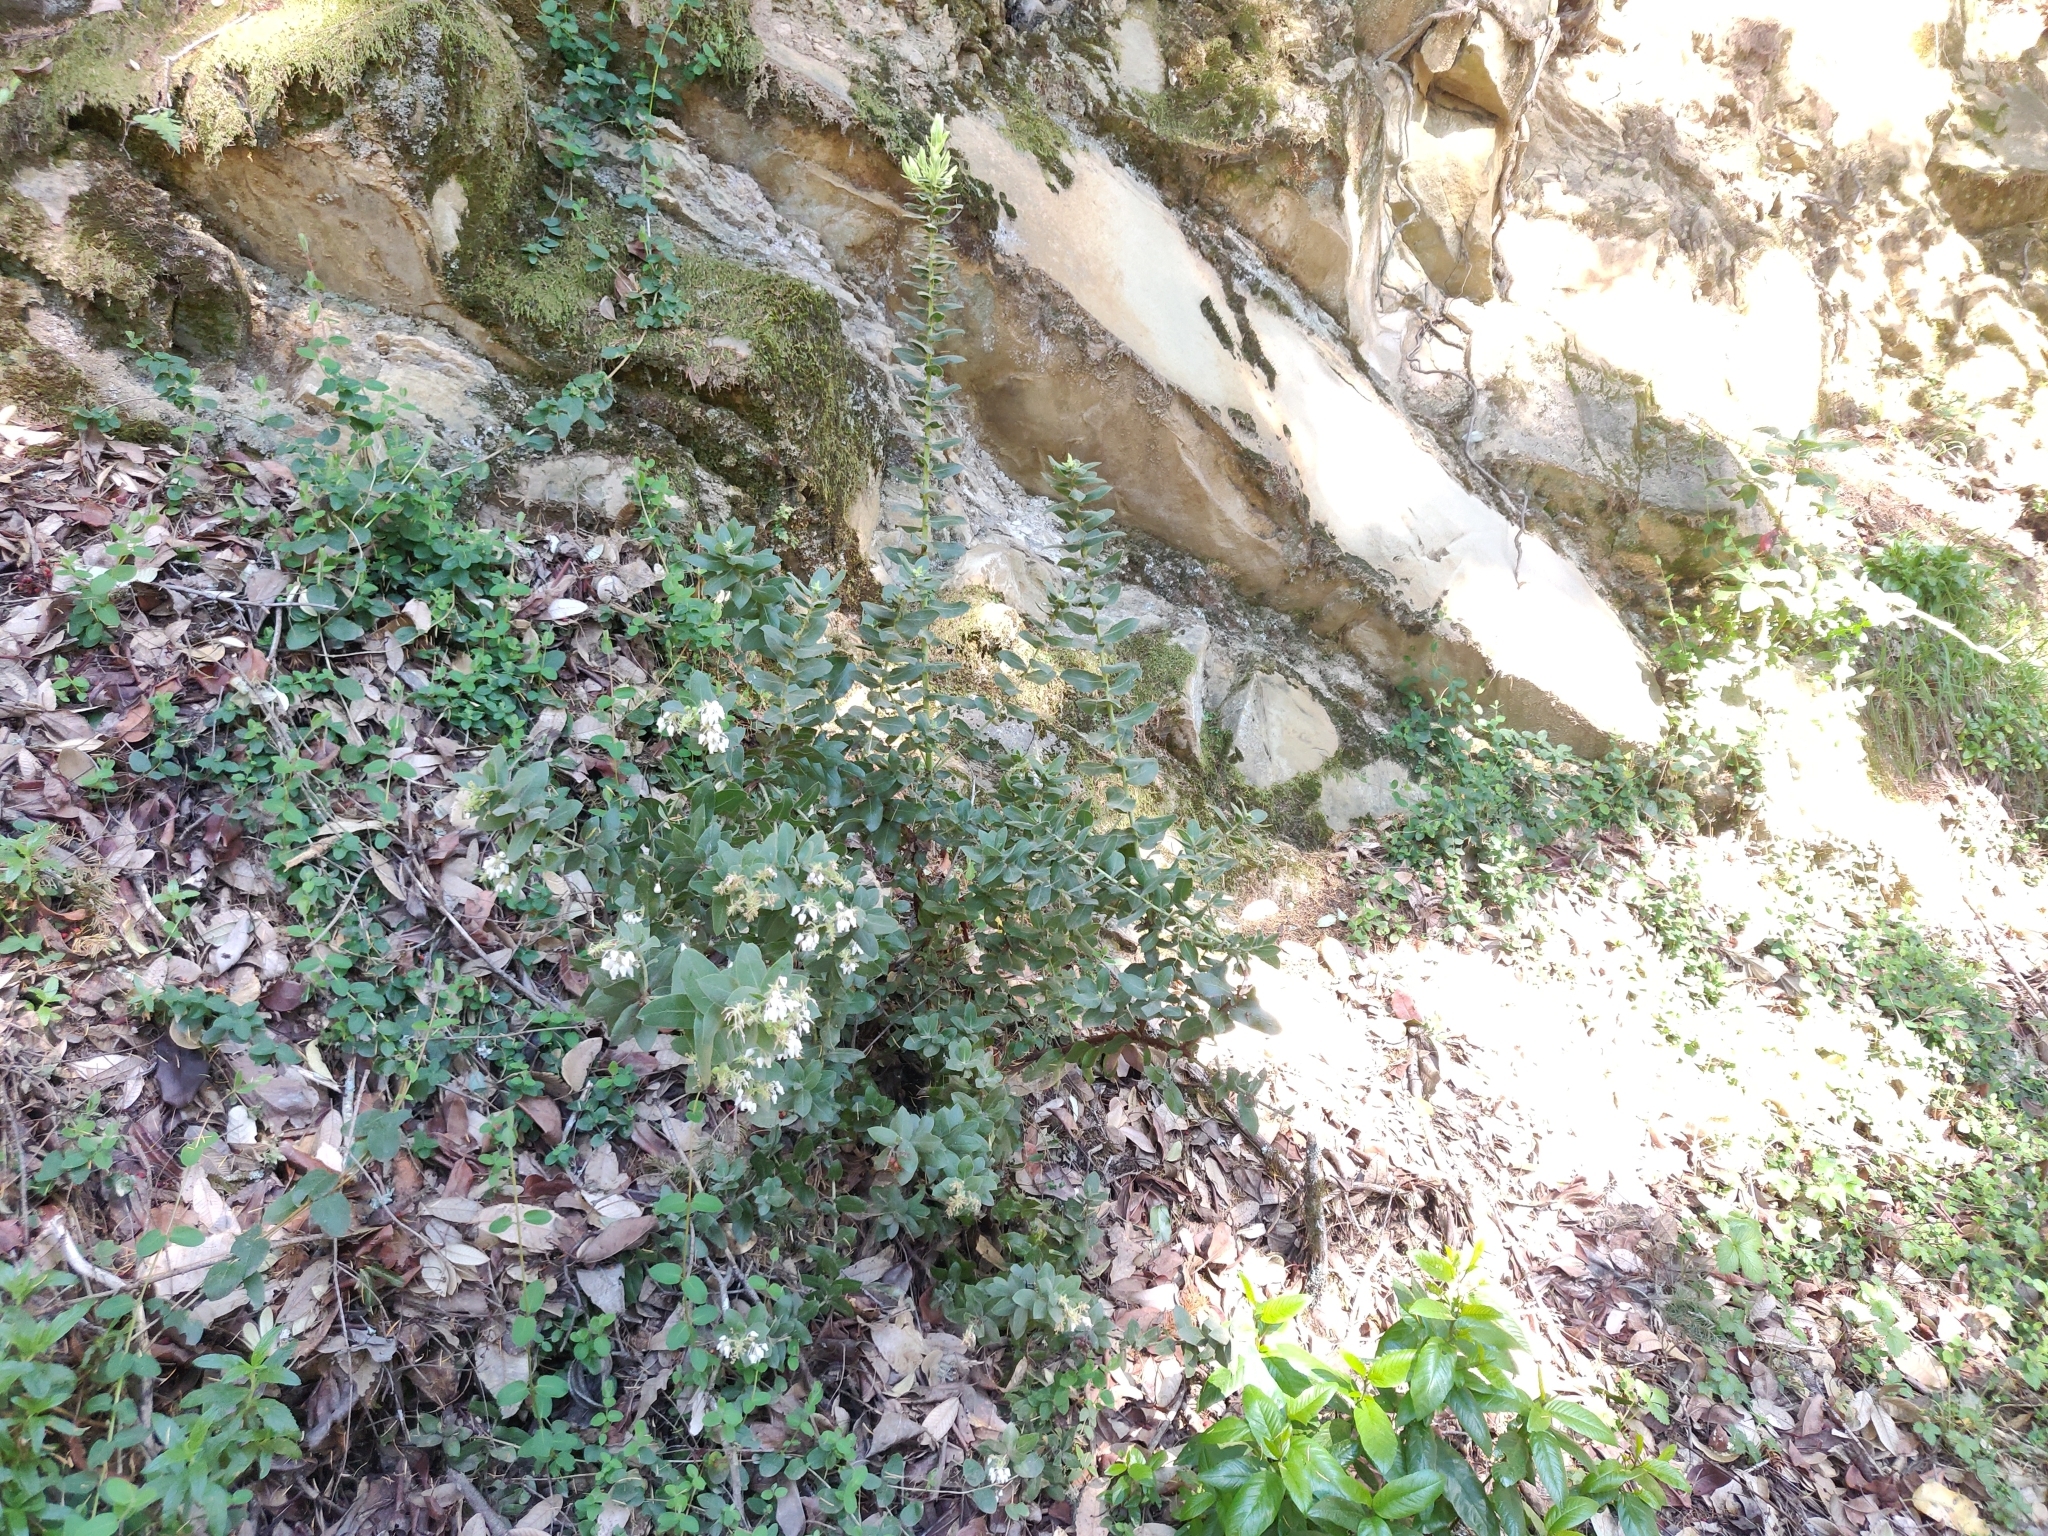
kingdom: Plantae
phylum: Tracheophyta
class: Magnoliopsida
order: Ericales
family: Ericaceae
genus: Arctostaphylos
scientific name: Arctostaphylos regismontana
